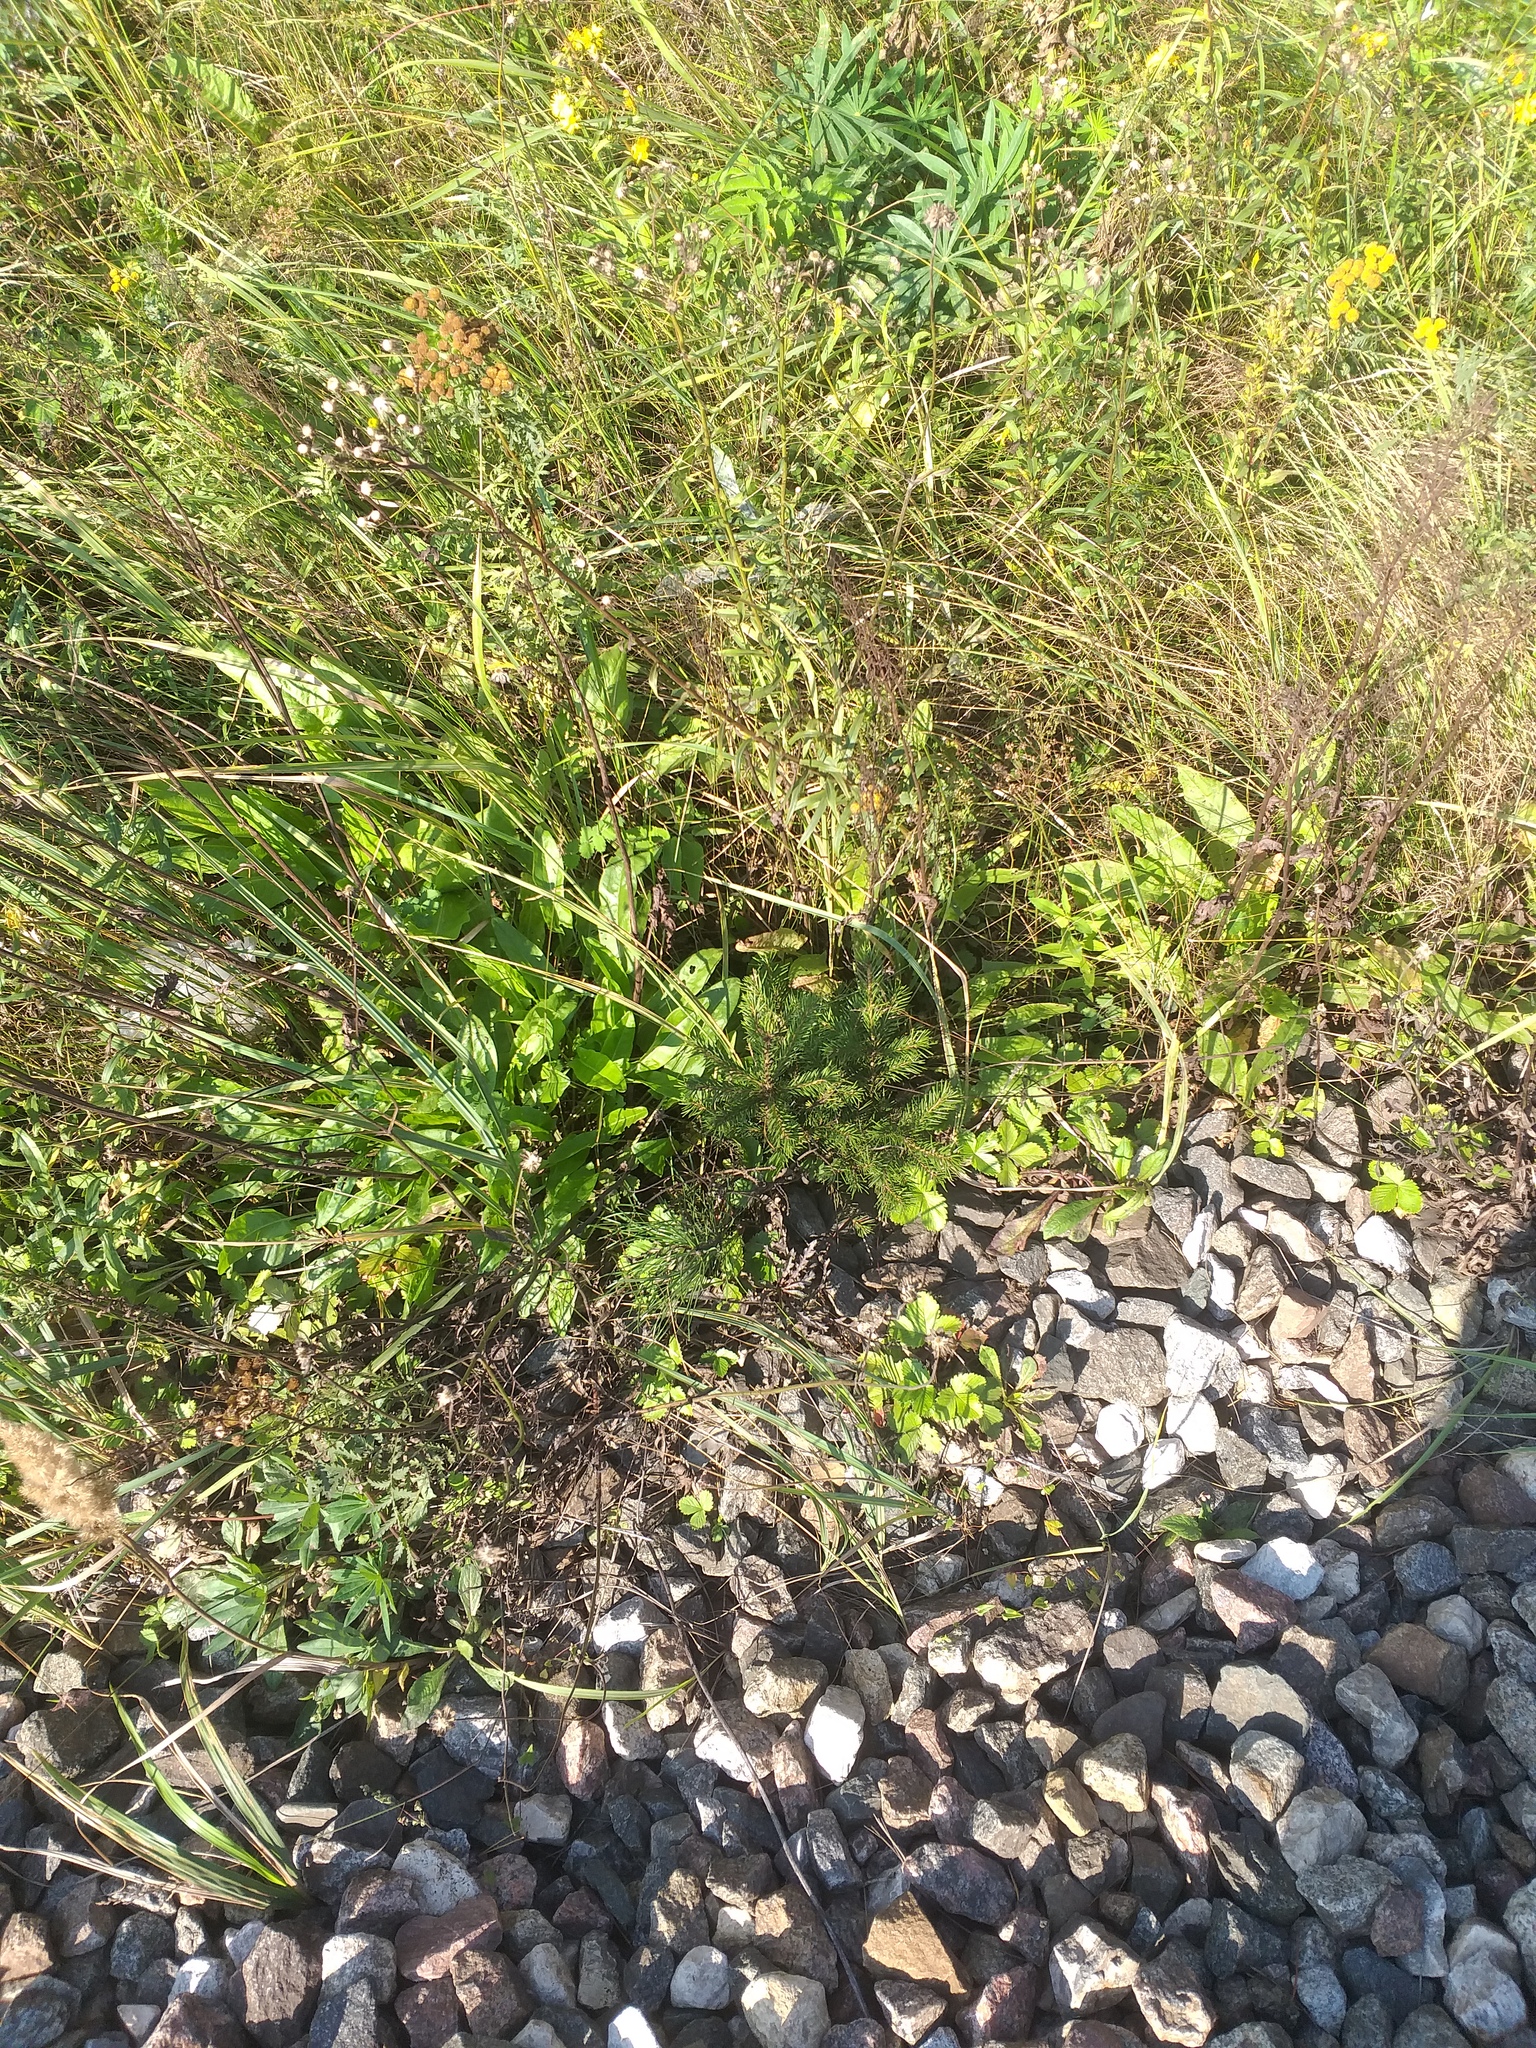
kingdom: Plantae
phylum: Tracheophyta
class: Pinopsida
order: Pinales
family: Pinaceae
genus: Picea
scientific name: Picea abies
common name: Norway spruce
